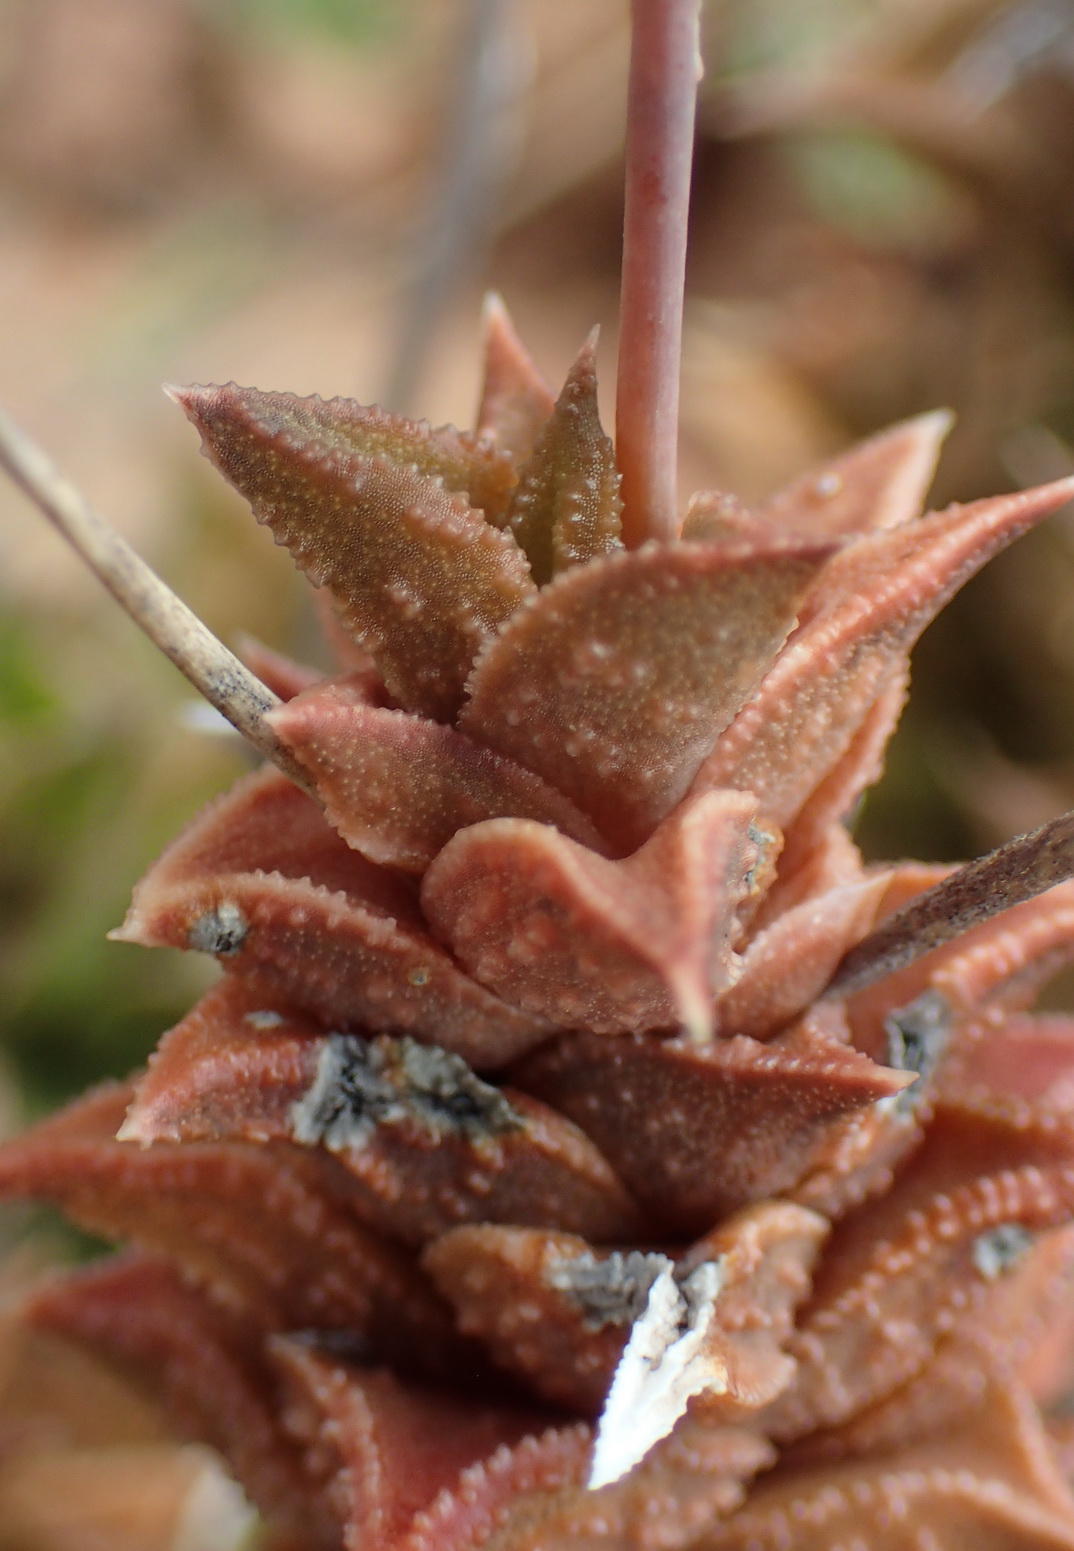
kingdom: Plantae
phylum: Tracheophyta
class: Liliopsida
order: Asparagales
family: Asphodelaceae
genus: Astroloba
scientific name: Astroloba corrugata
